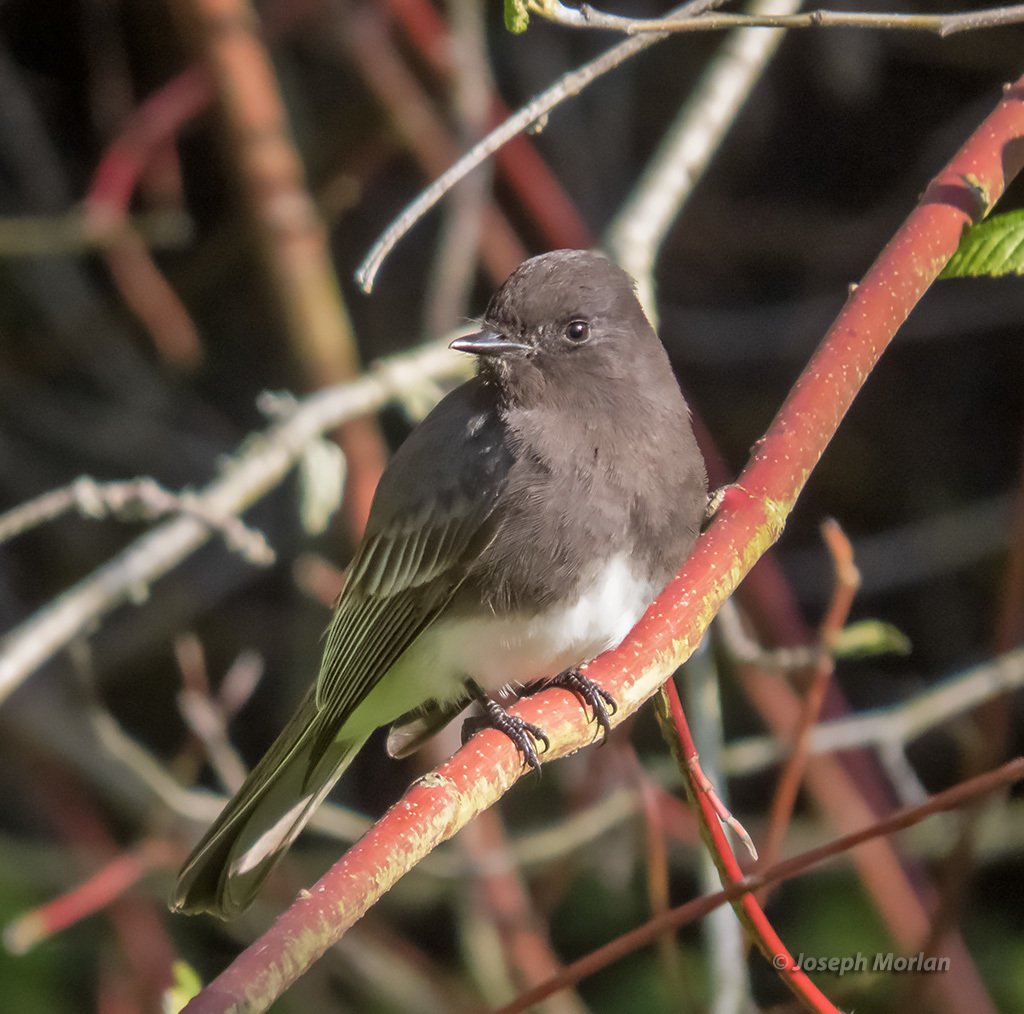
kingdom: Animalia
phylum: Chordata
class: Aves
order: Passeriformes
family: Tyrannidae
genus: Sayornis
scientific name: Sayornis nigricans
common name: Black phoebe
